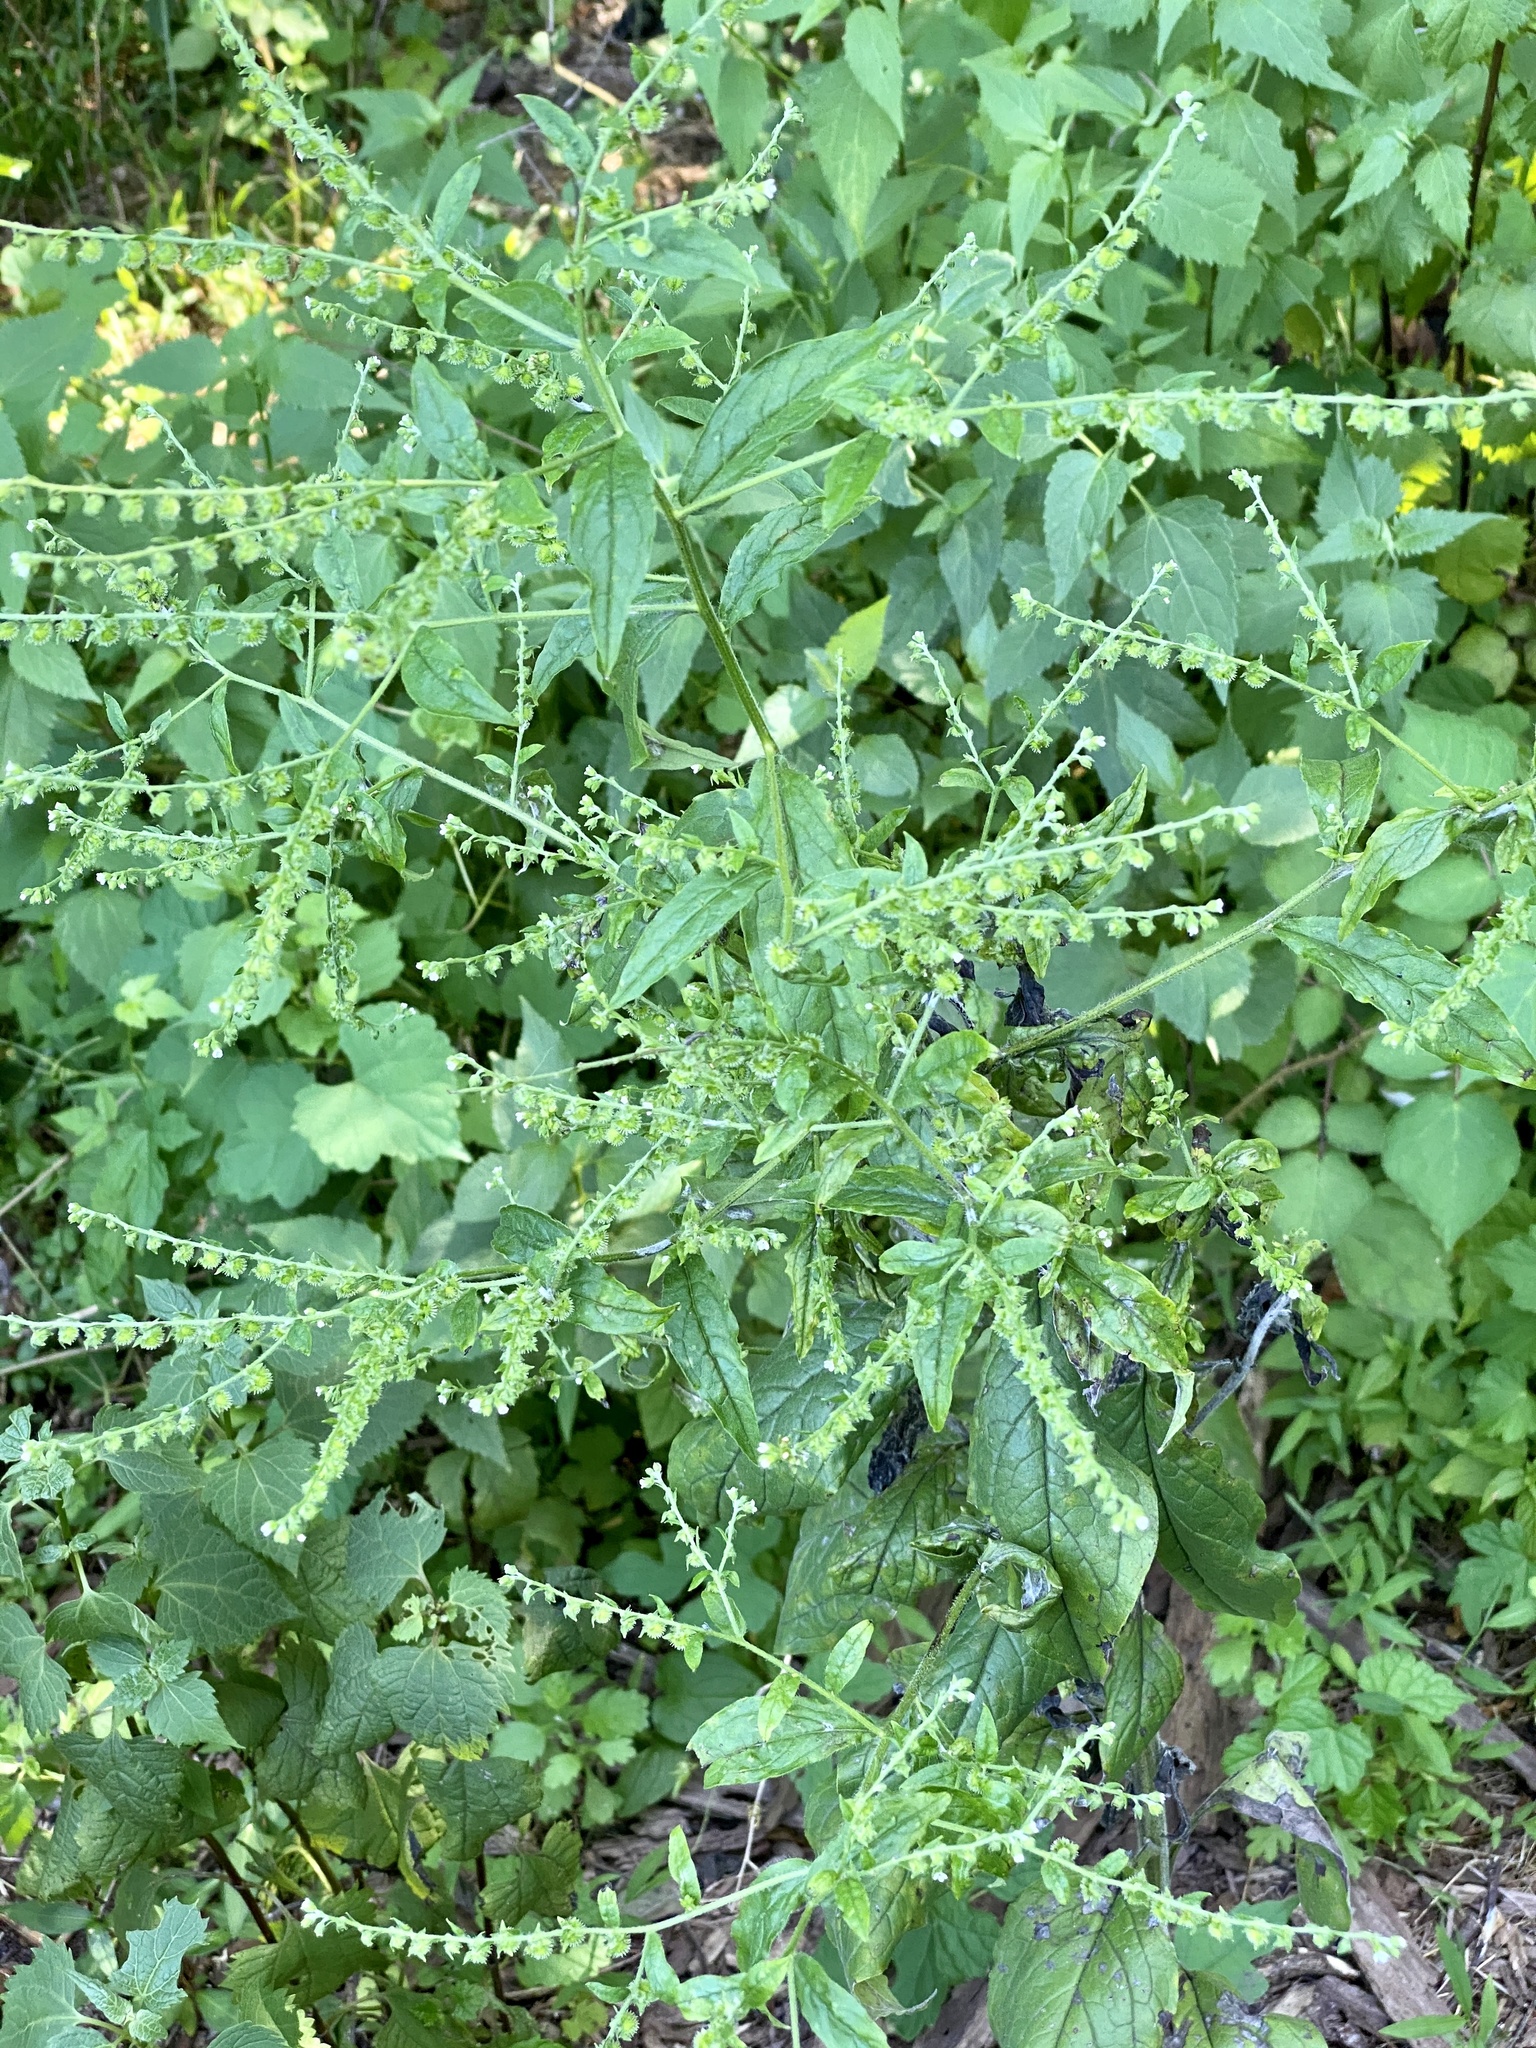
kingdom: Plantae
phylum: Tracheophyta
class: Magnoliopsida
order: Boraginales
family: Boraginaceae
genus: Hackelia
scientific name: Hackelia virginiana
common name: Beggar's-lice
